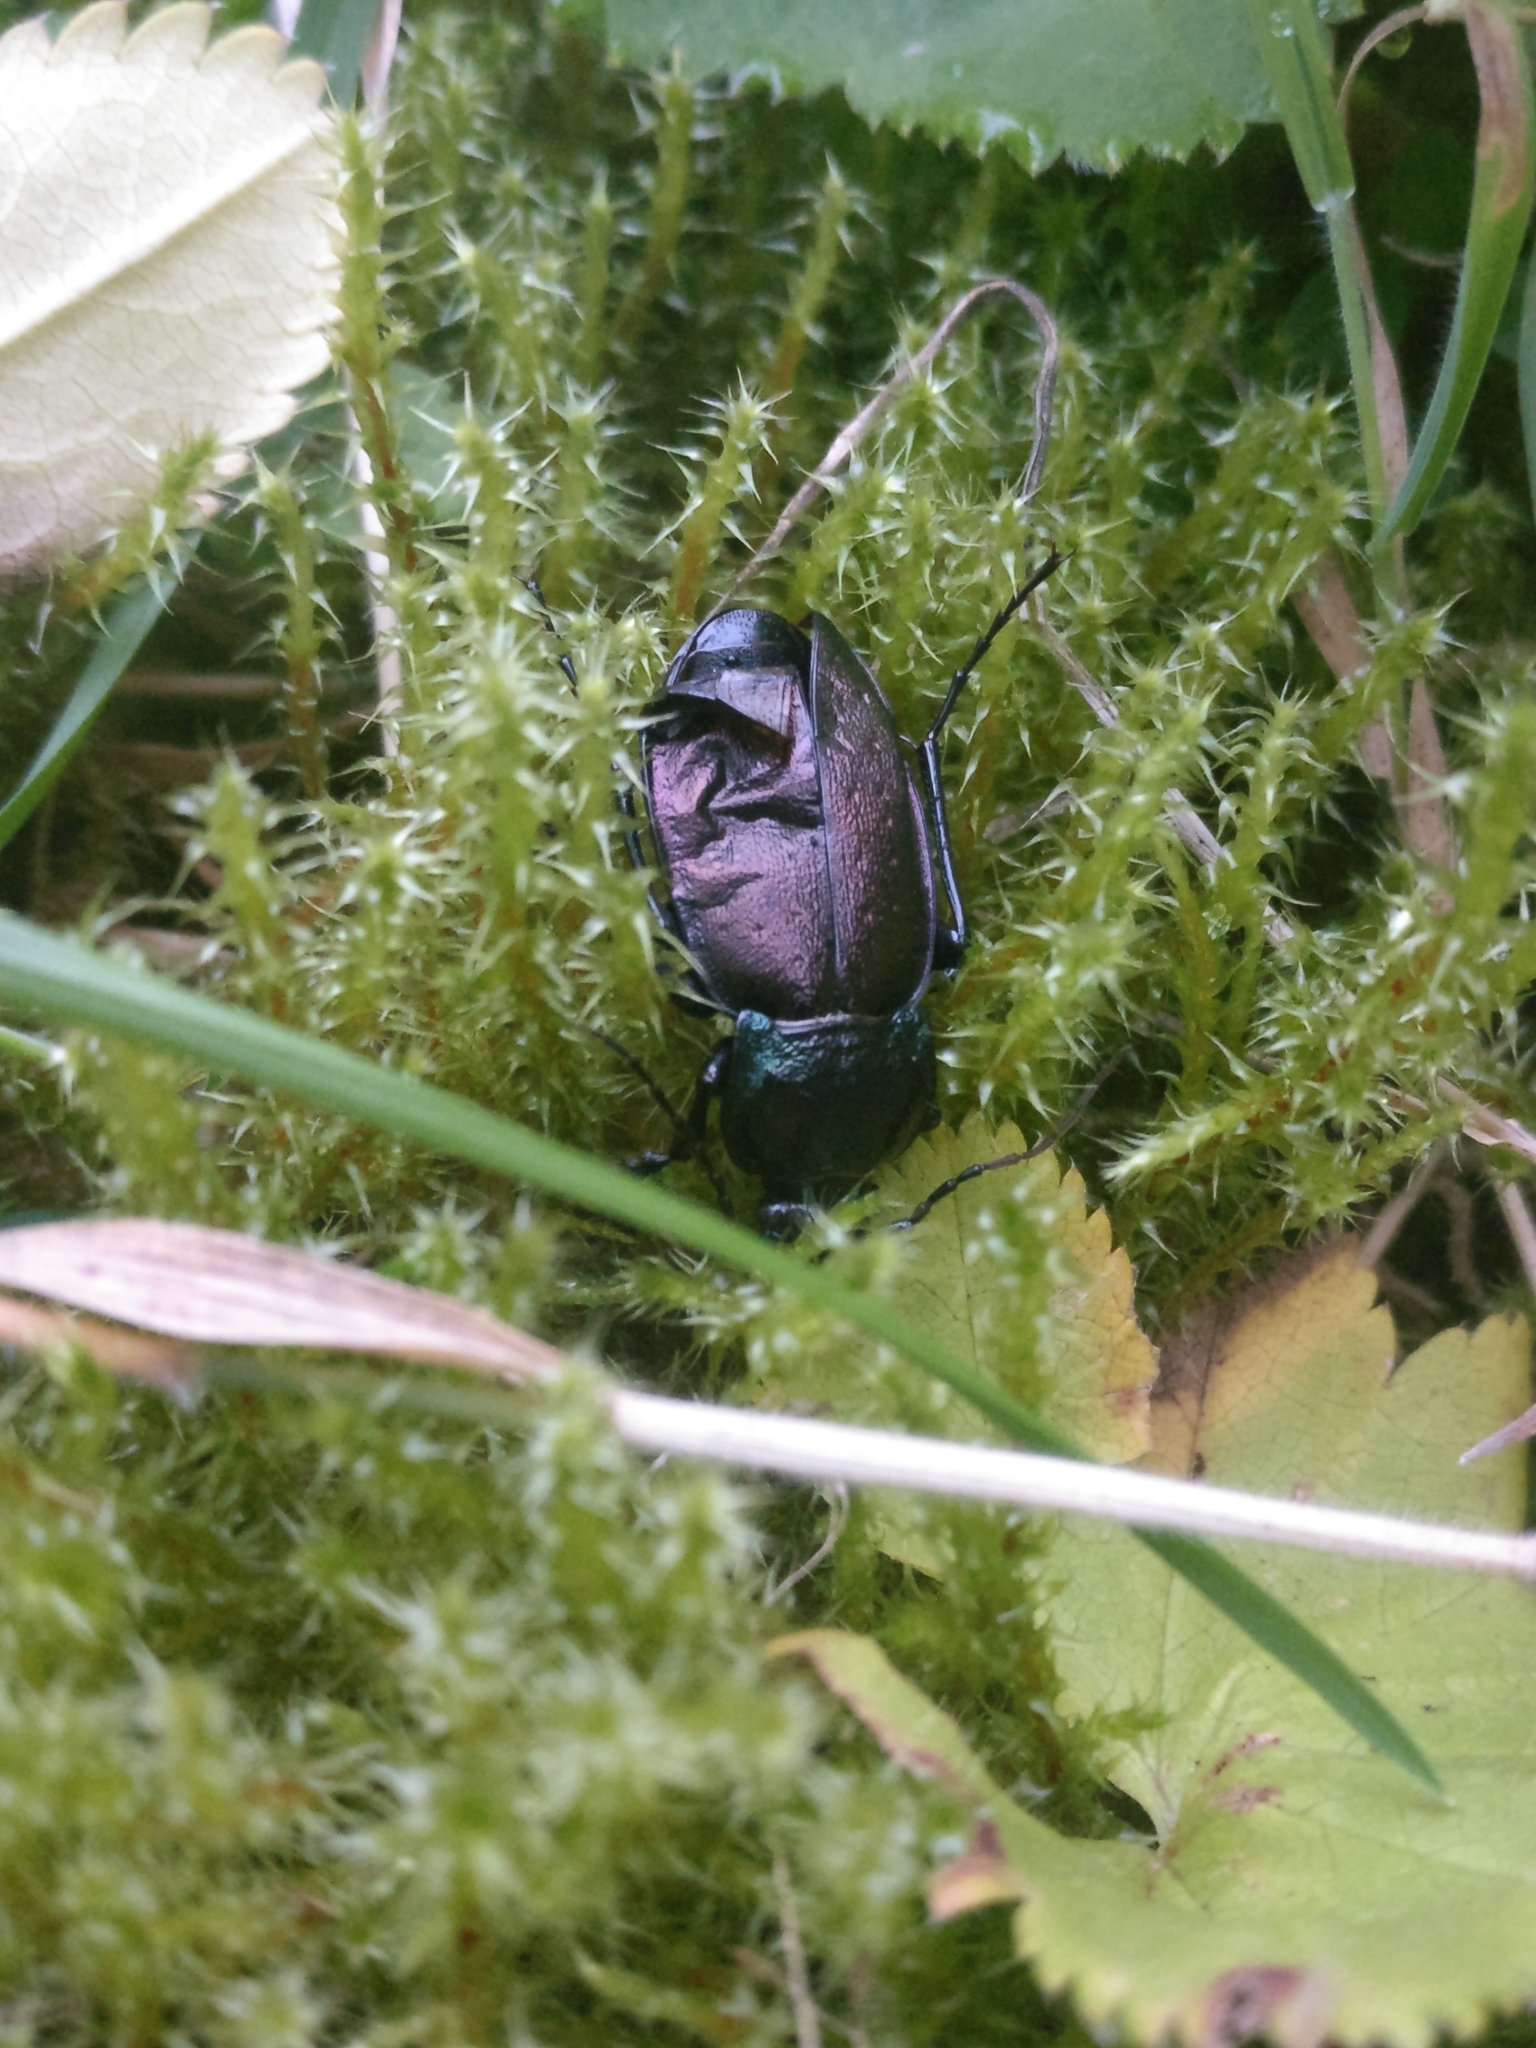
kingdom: Animalia
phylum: Arthropoda
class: Insecta
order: Coleoptera
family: Carabidae
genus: Carabus
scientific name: Carabus nemoralis
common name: European ground beetle
